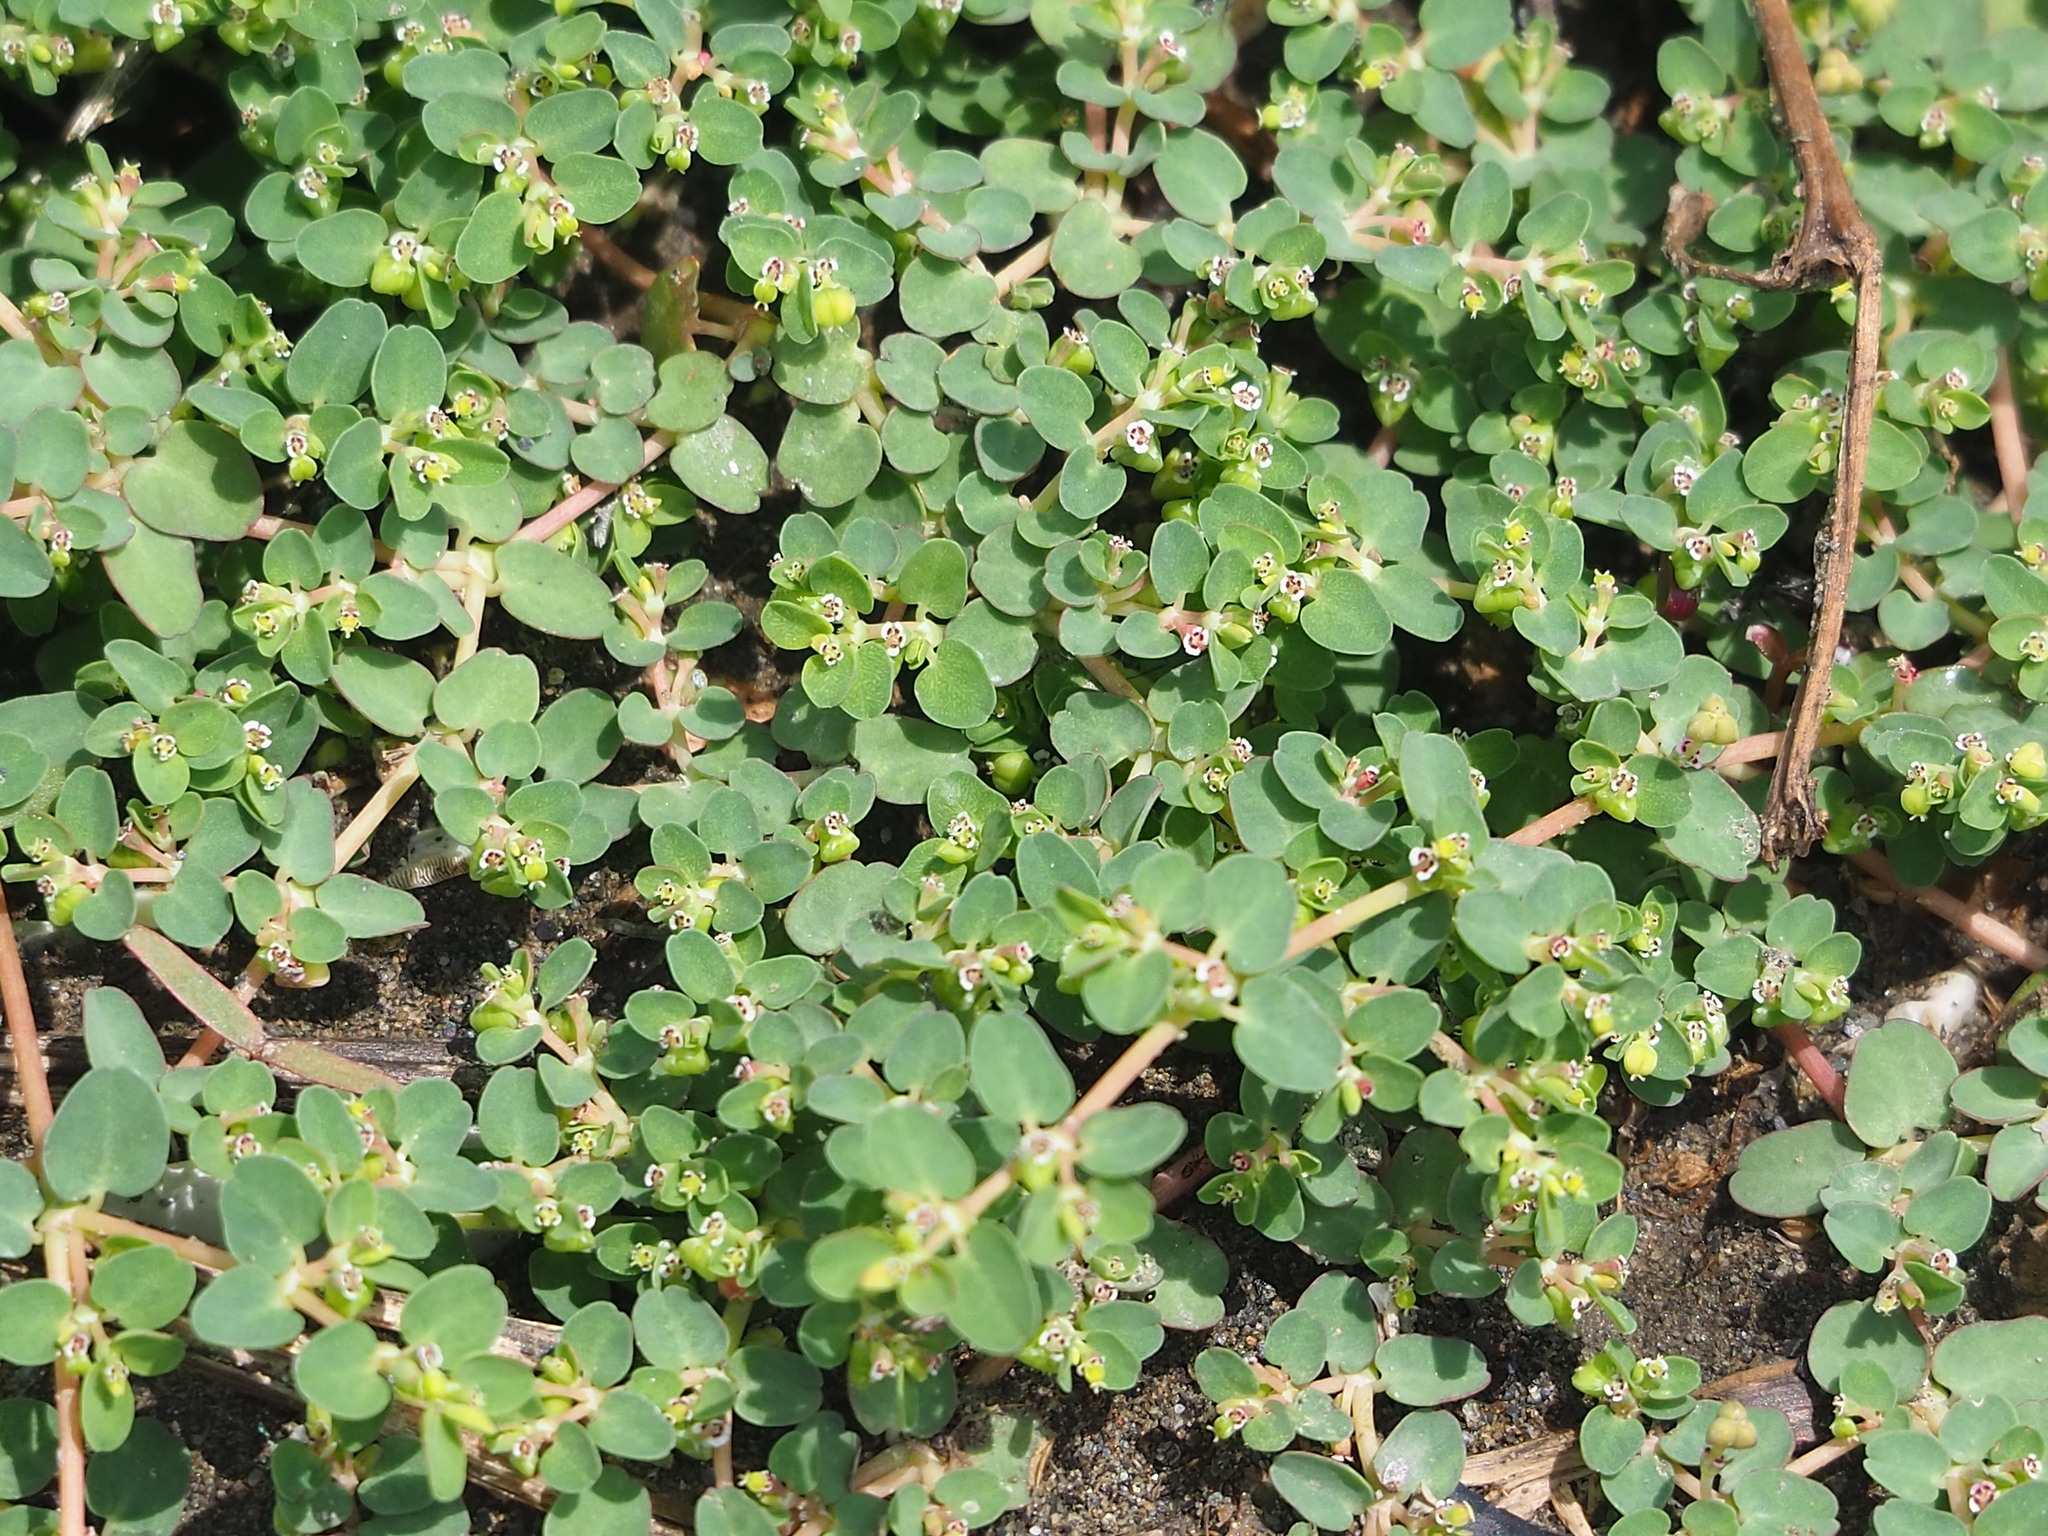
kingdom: Plantae
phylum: Tracheophyta
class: Magnoliopsida
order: Malpighiales
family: Euphorbiaceae
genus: Euphorbia
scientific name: Euphorbia serpens
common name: Matted sandmat
